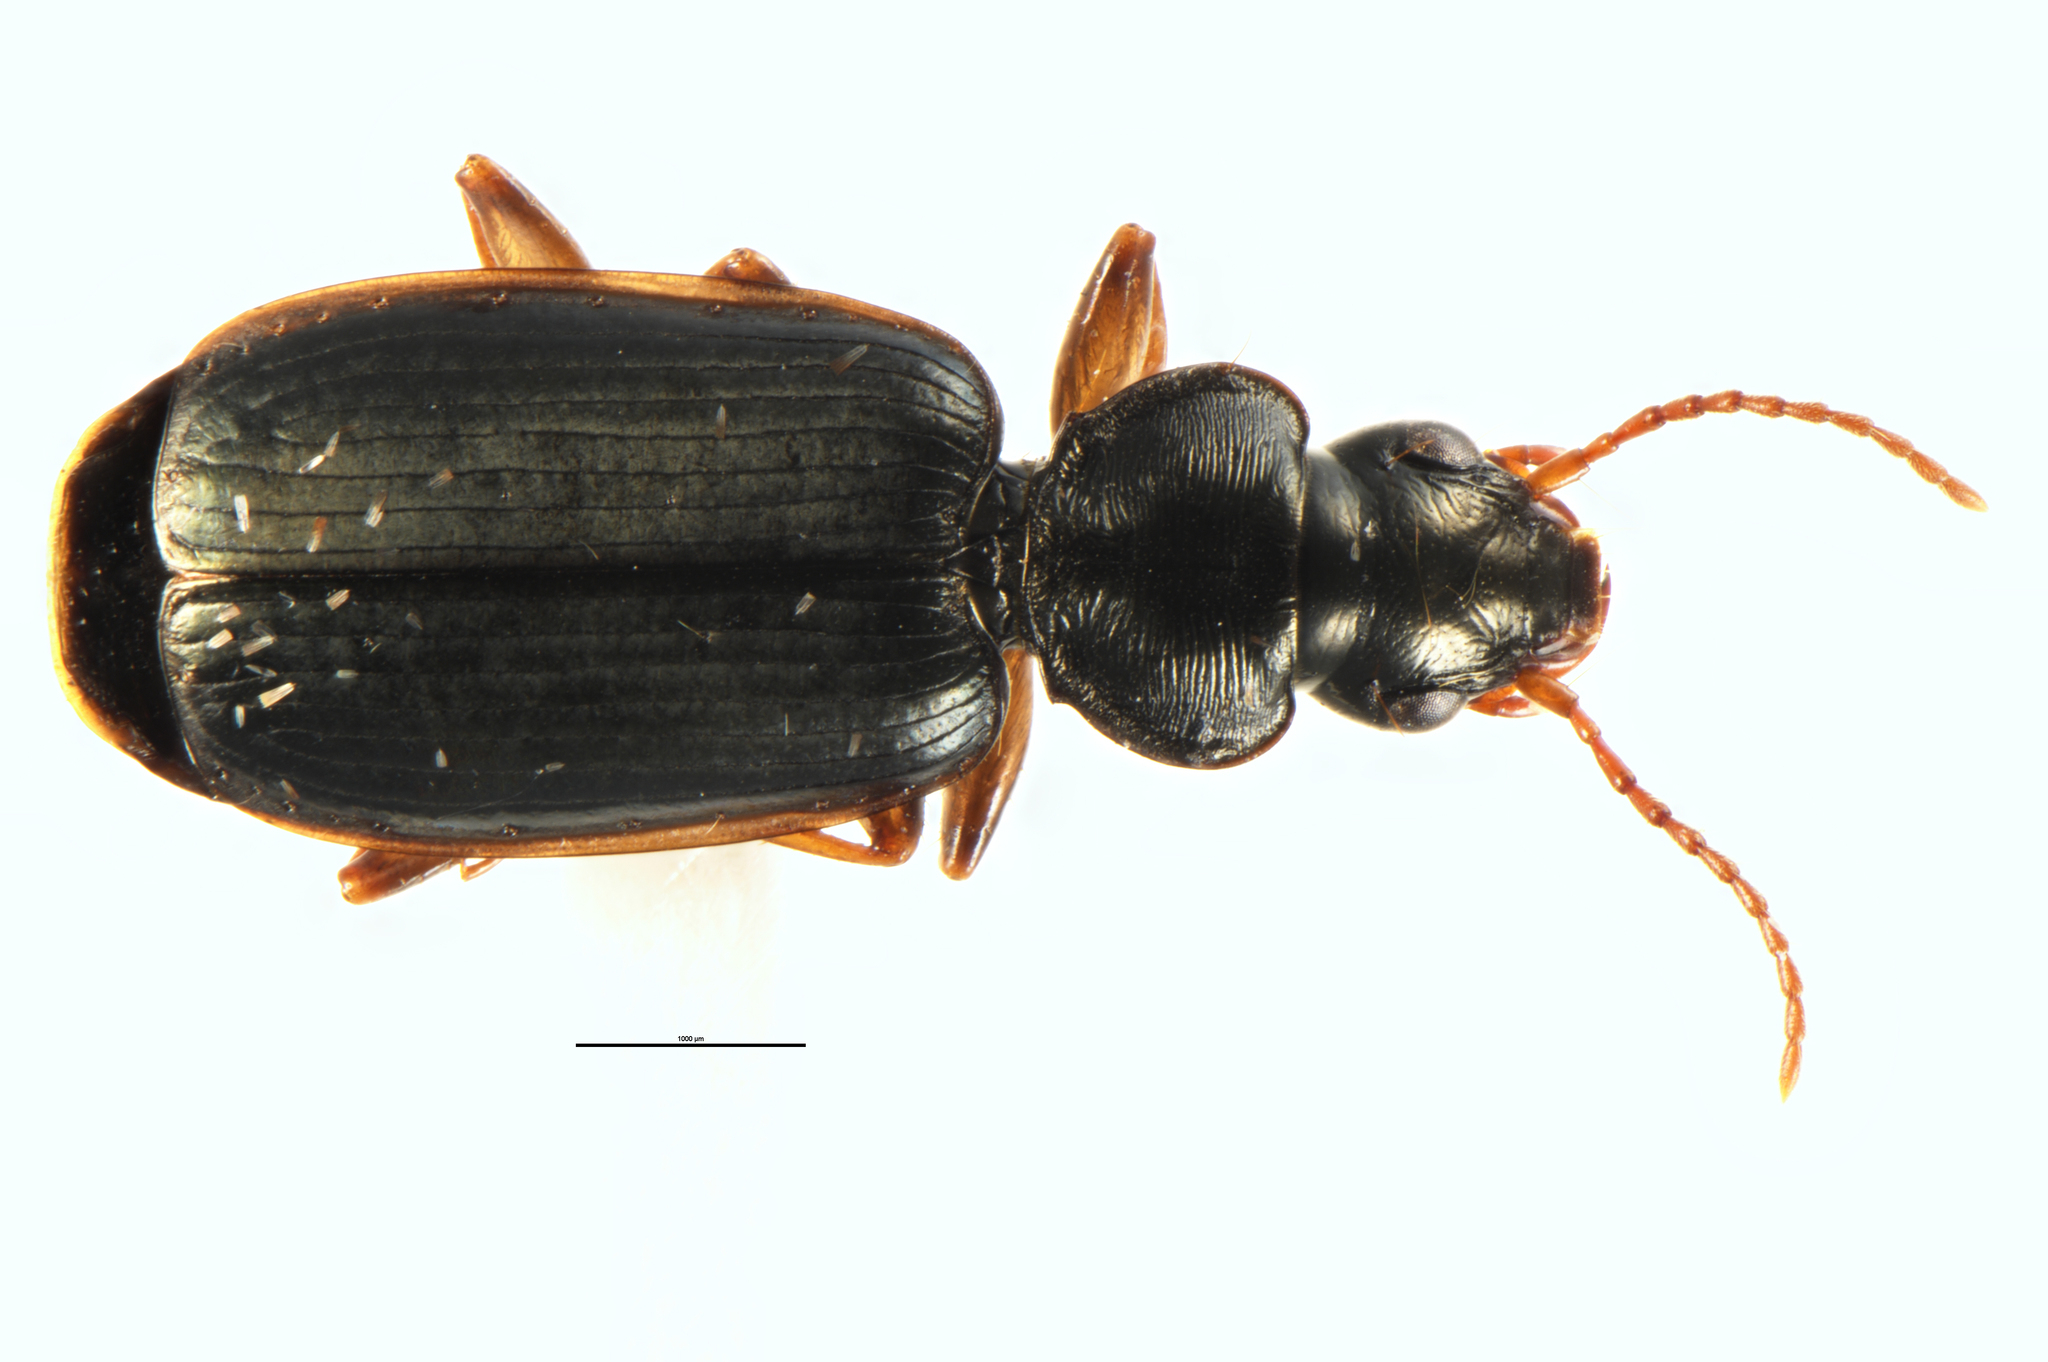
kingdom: Animalia
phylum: Arthropoda
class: Insecta
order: Coleoptera
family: Carabidae
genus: Anomotarus
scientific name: Anomotarus illawarrae
